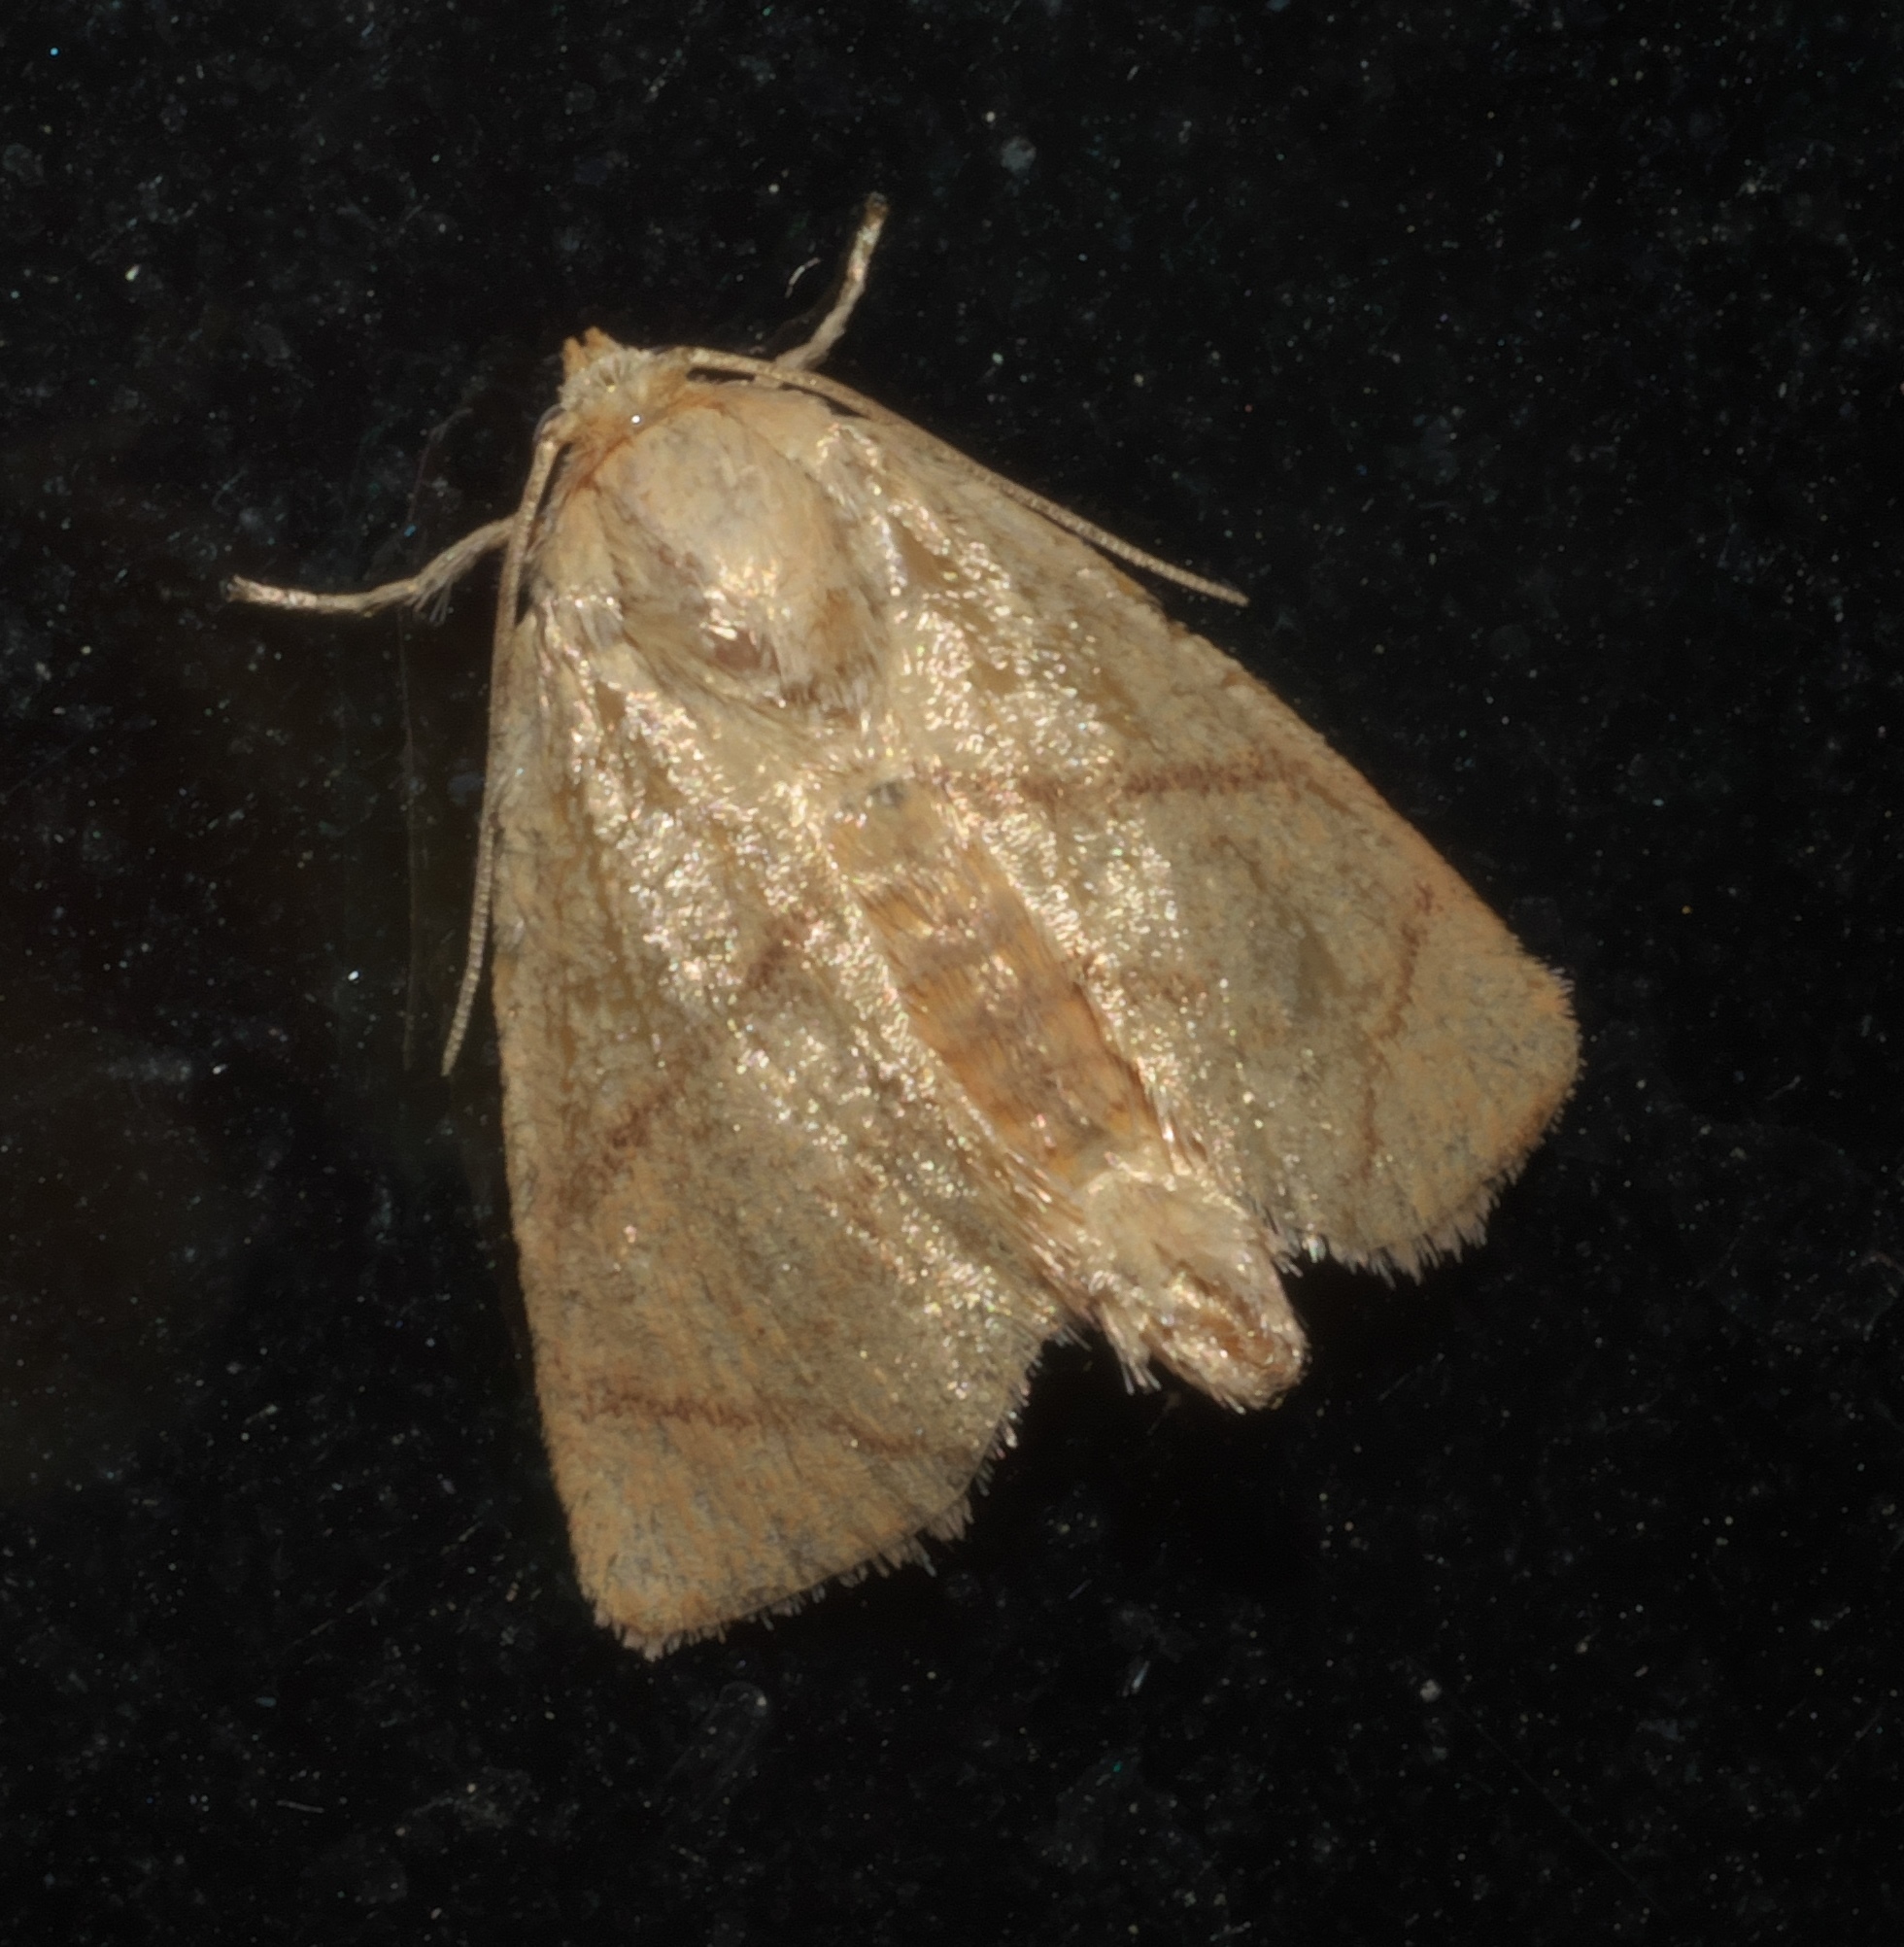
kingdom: Animalia
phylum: Arthropoda
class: Insecta
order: Lepidoptera
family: Limacodidae
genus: Apoda
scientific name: Apoda y-inversa
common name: Yellow-collared slug moth
